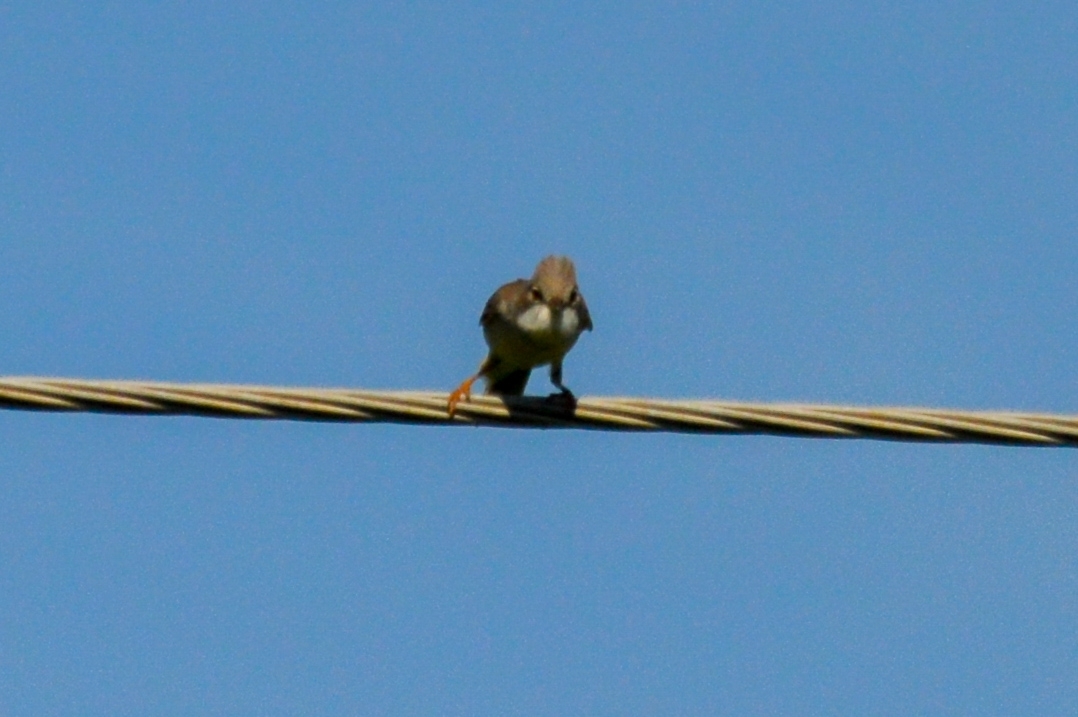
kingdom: Animalia
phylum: Chordata
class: Aves
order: Passeriformes
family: Sylviidae
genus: Sylvia
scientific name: Sylvia communis
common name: Common whitethroat
